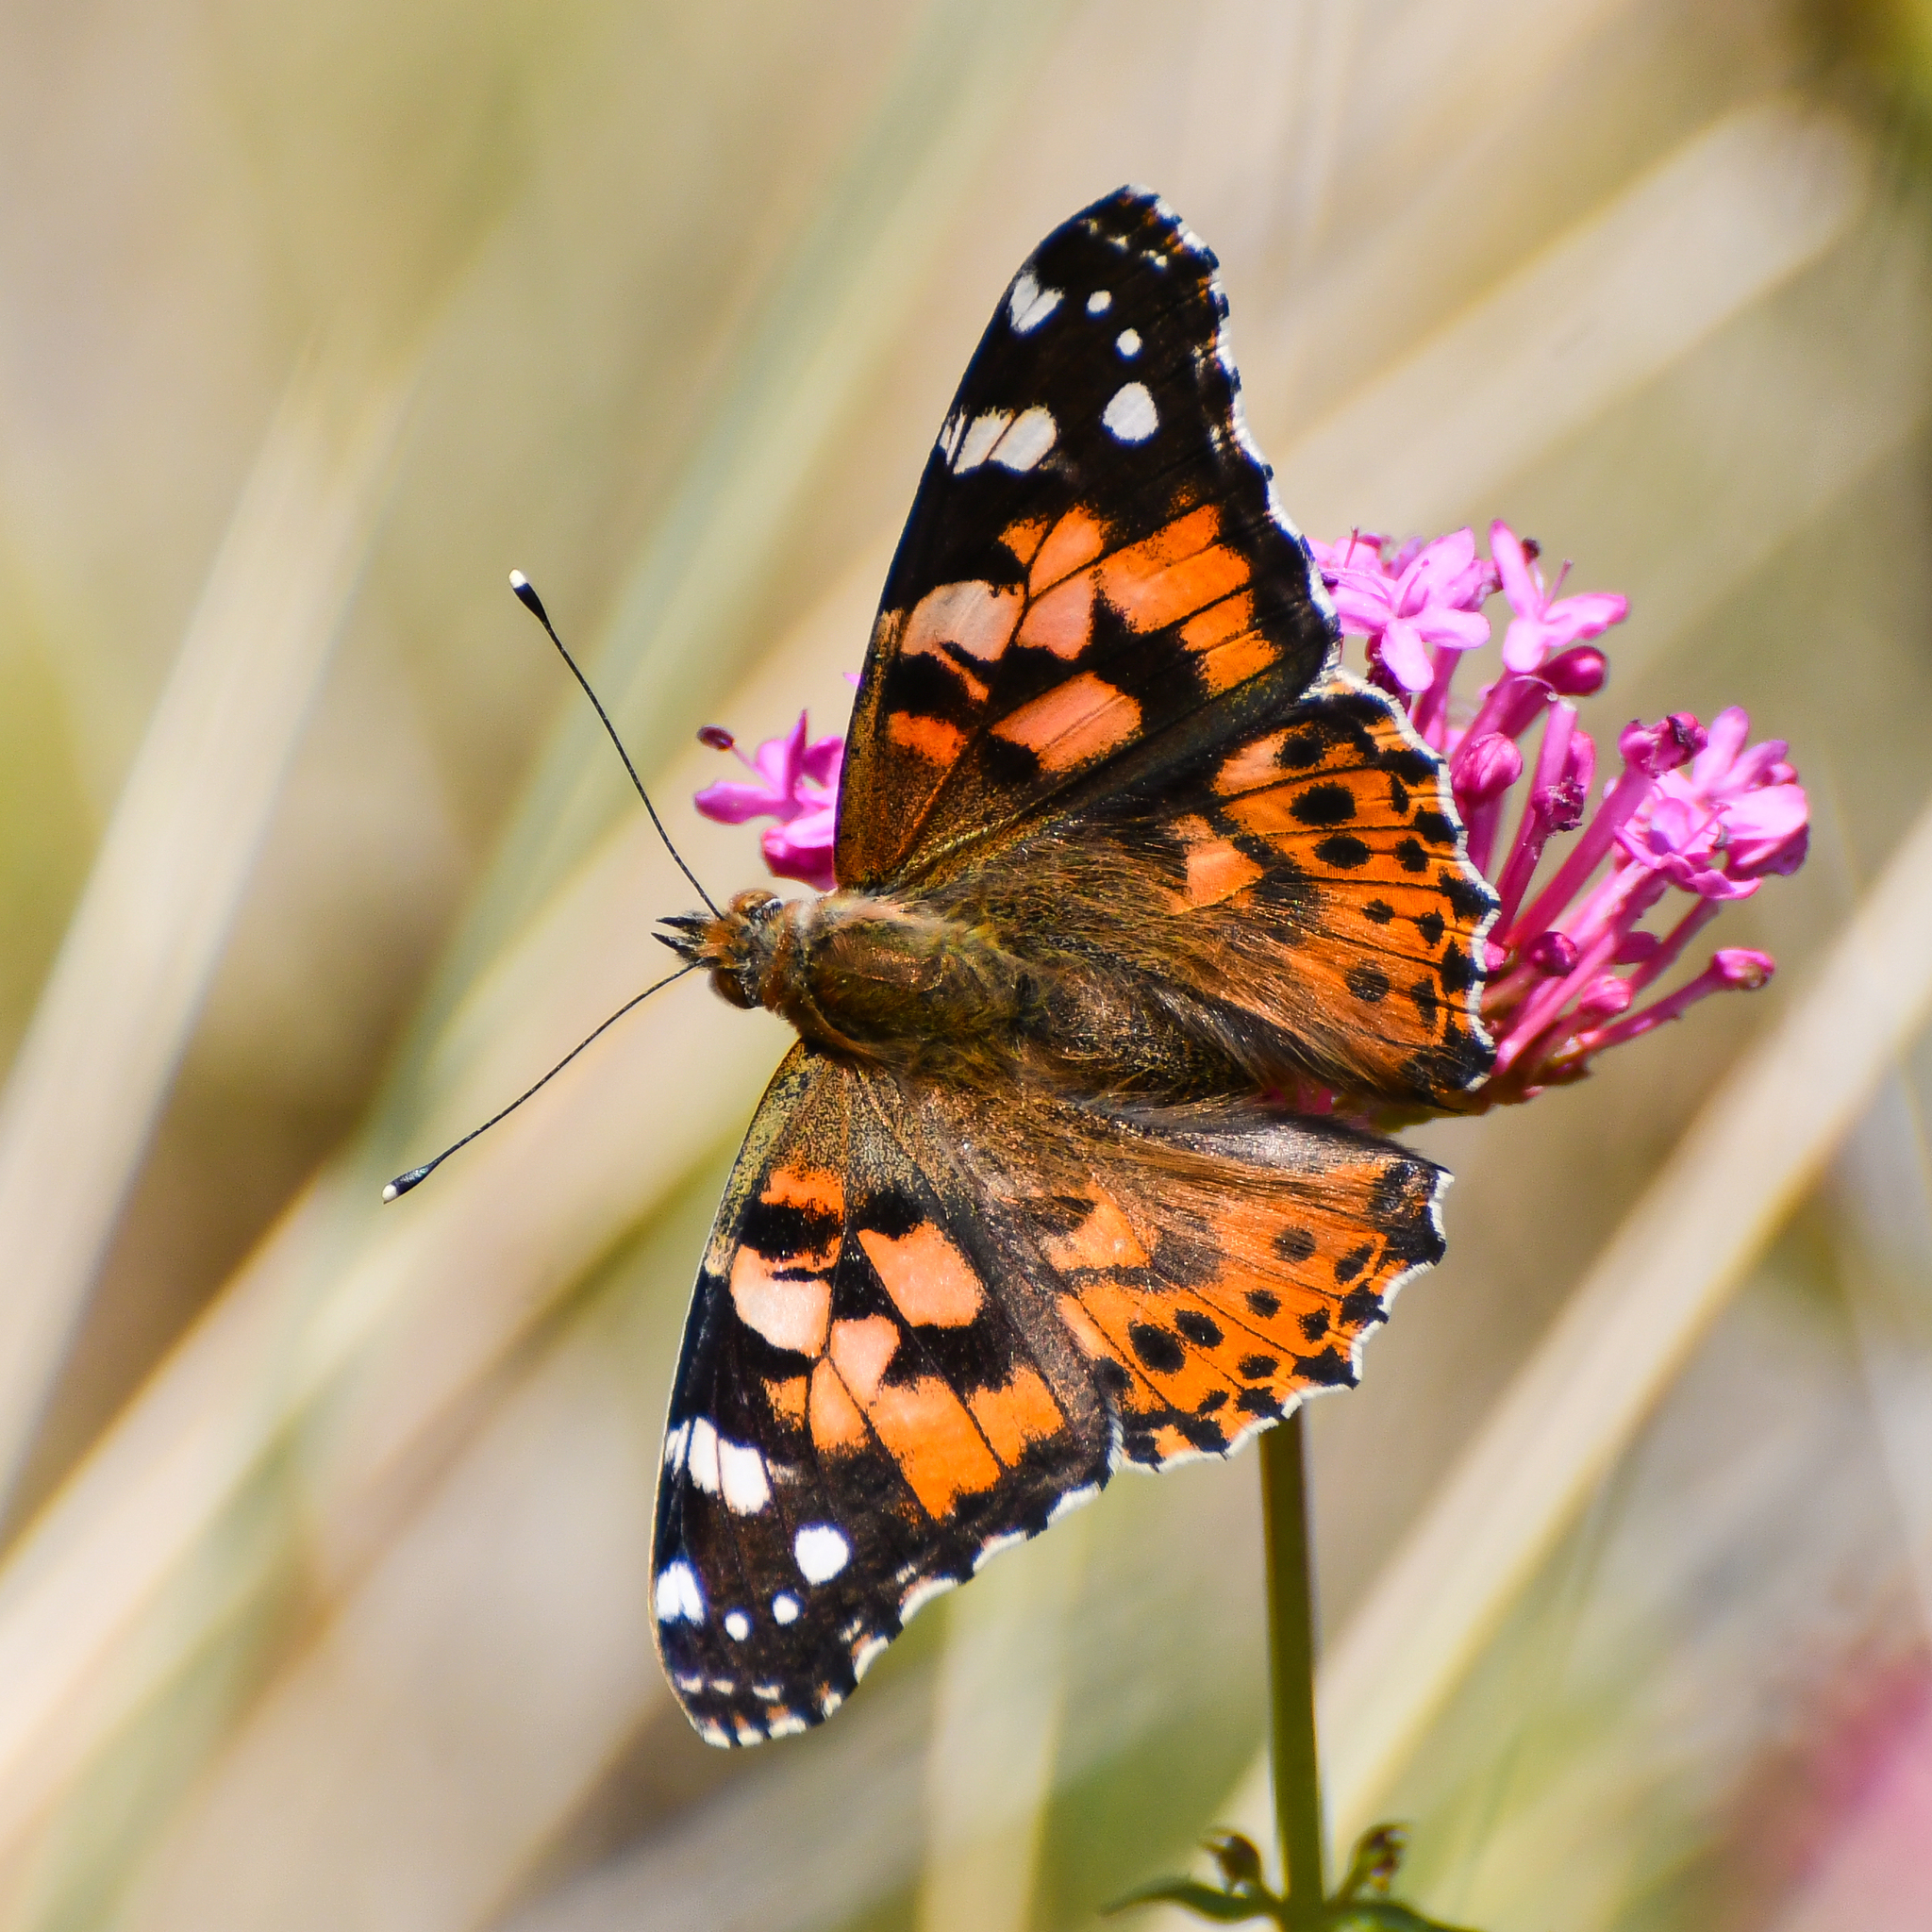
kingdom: Animalia
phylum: Arthropoda
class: Insecta
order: Lepidoptera
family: Nymphalidae
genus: Vanessa
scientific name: Vanessa cardui
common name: Painted lady
